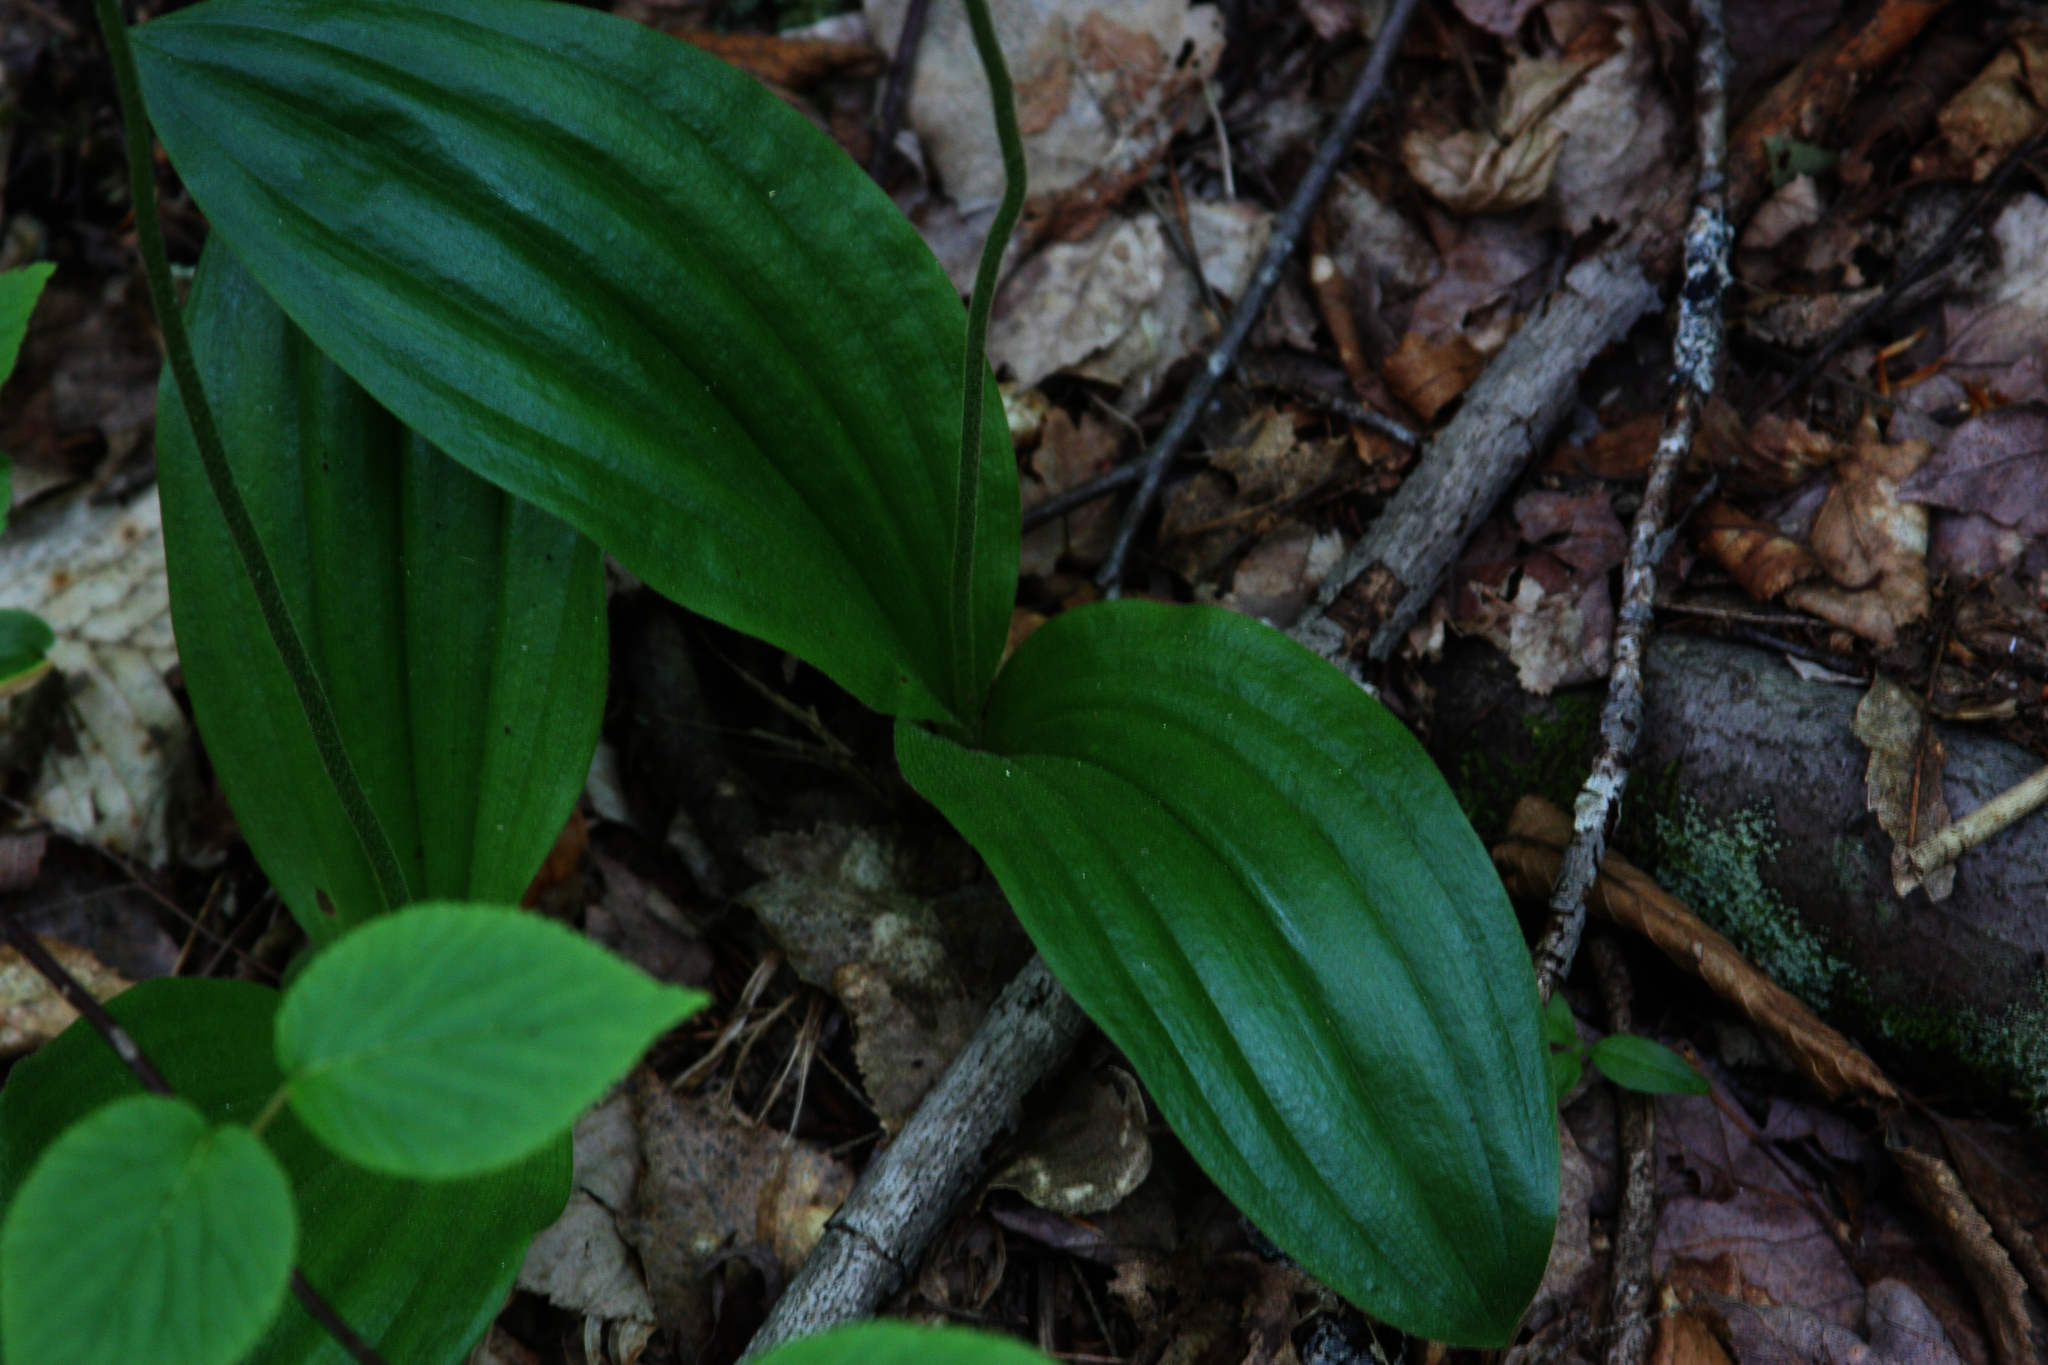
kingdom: Plantae
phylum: Tracheophyta
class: Liliopsida
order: Asparagales
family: Orchidaceae
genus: Cypripedium
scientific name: Cypripedium acaule
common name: Pink lady's-slipper
